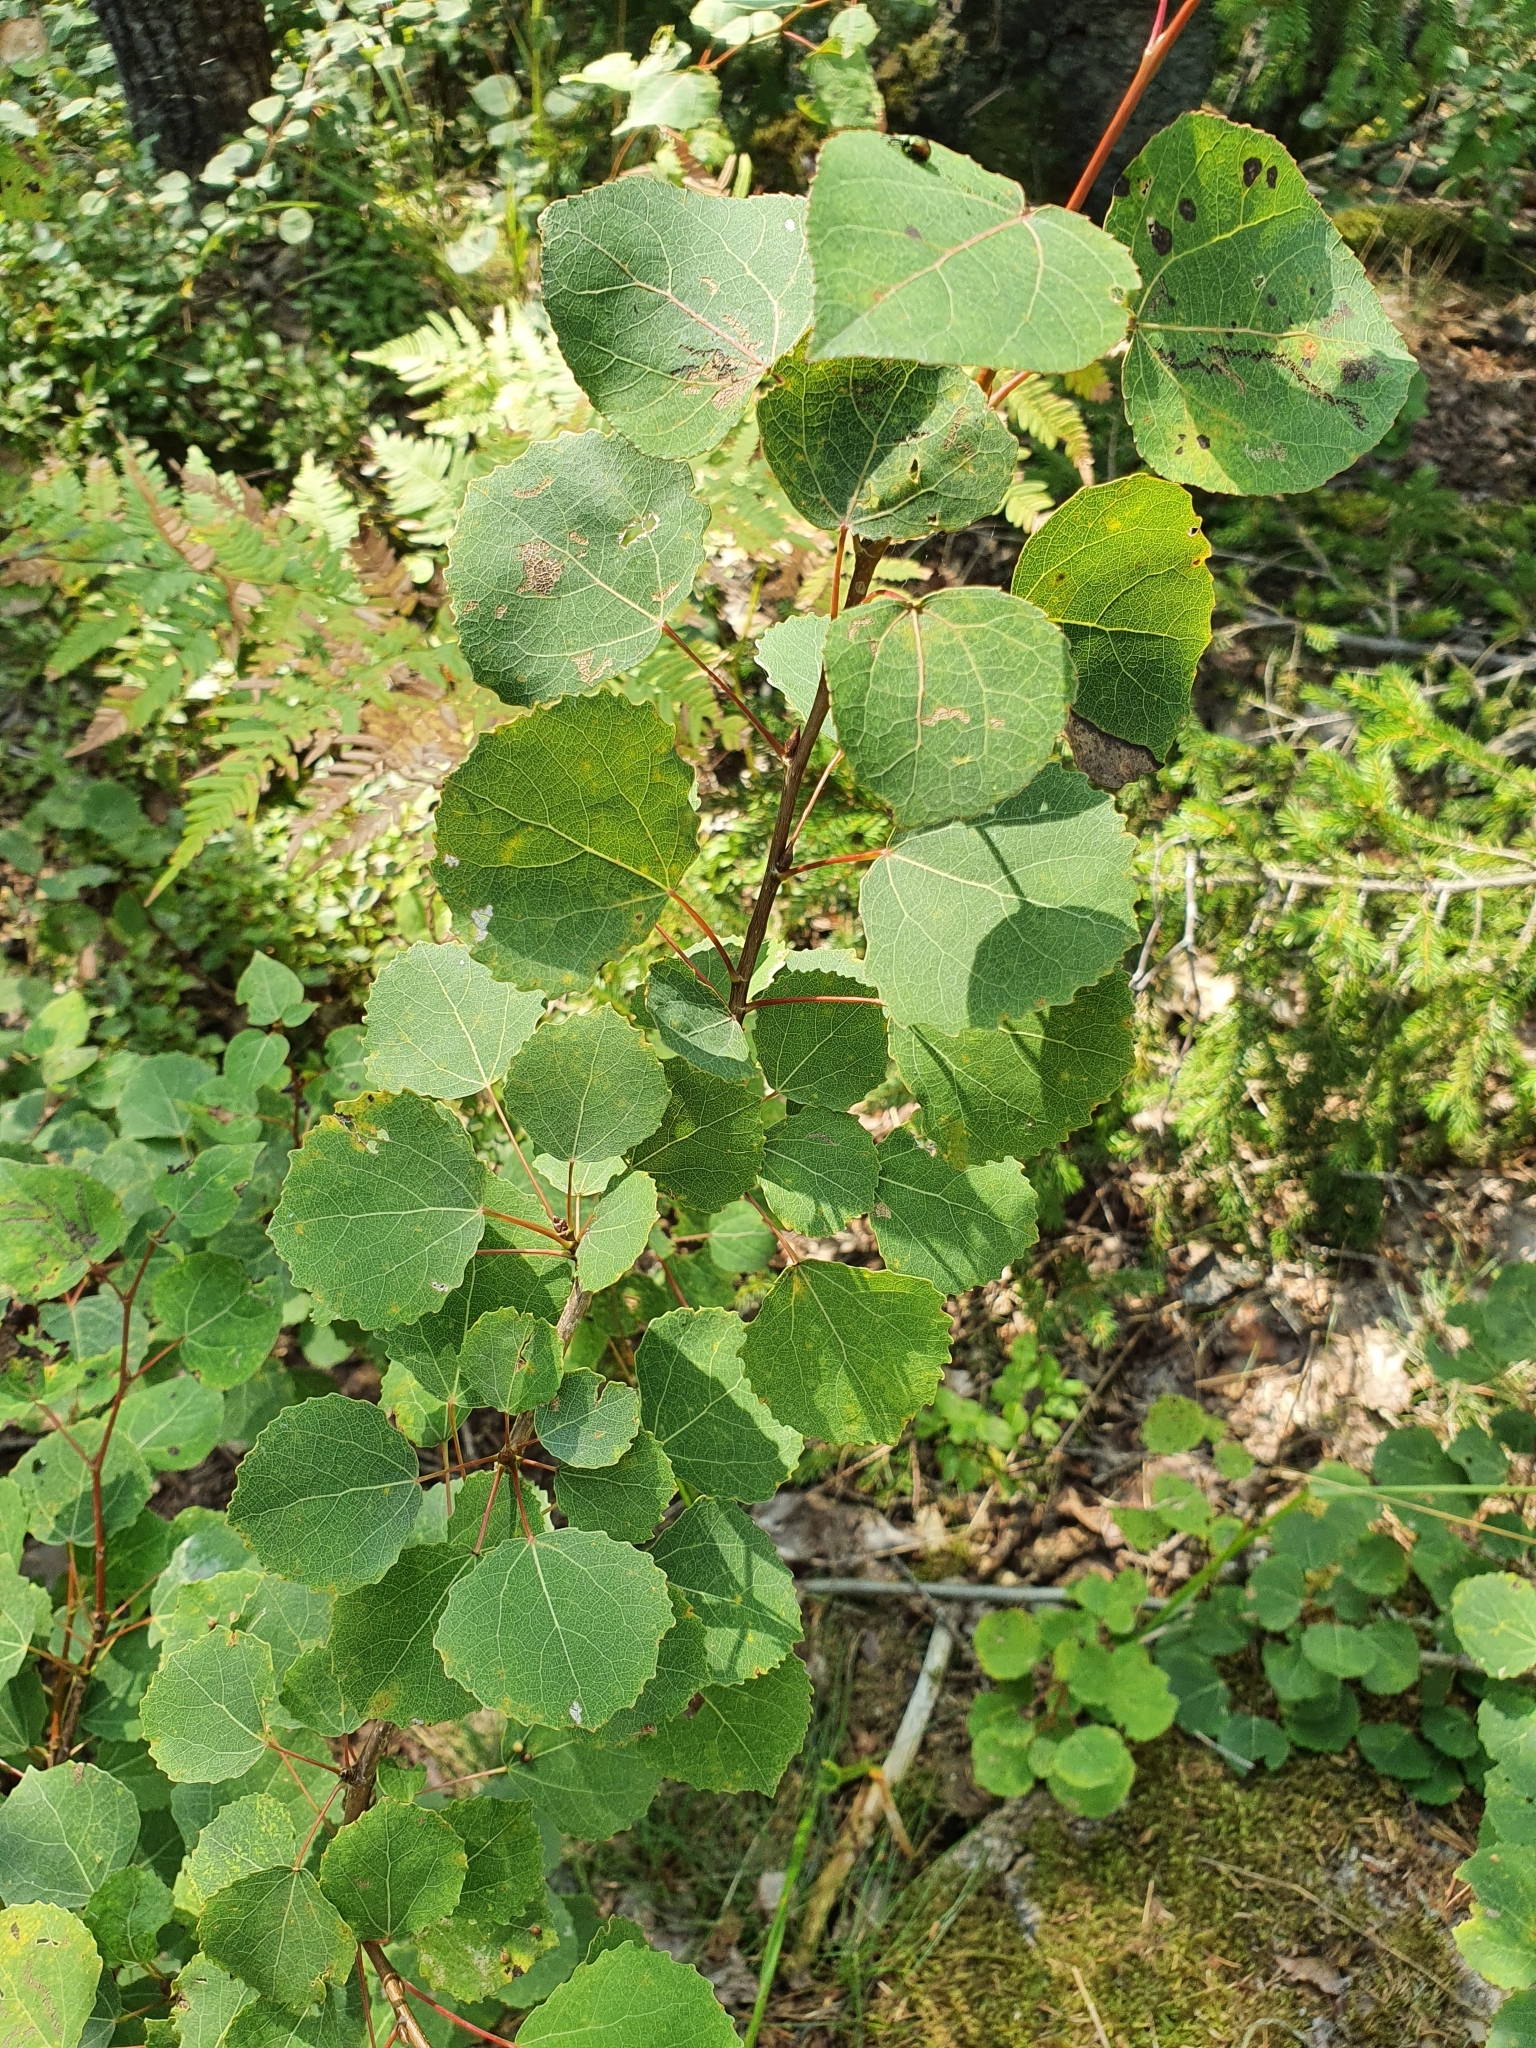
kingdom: Plantae
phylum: Tracheophyta
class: Magnoliopsida
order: Malpighiales
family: Salicaceae
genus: Populus
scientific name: Populus tremula
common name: European aspen
